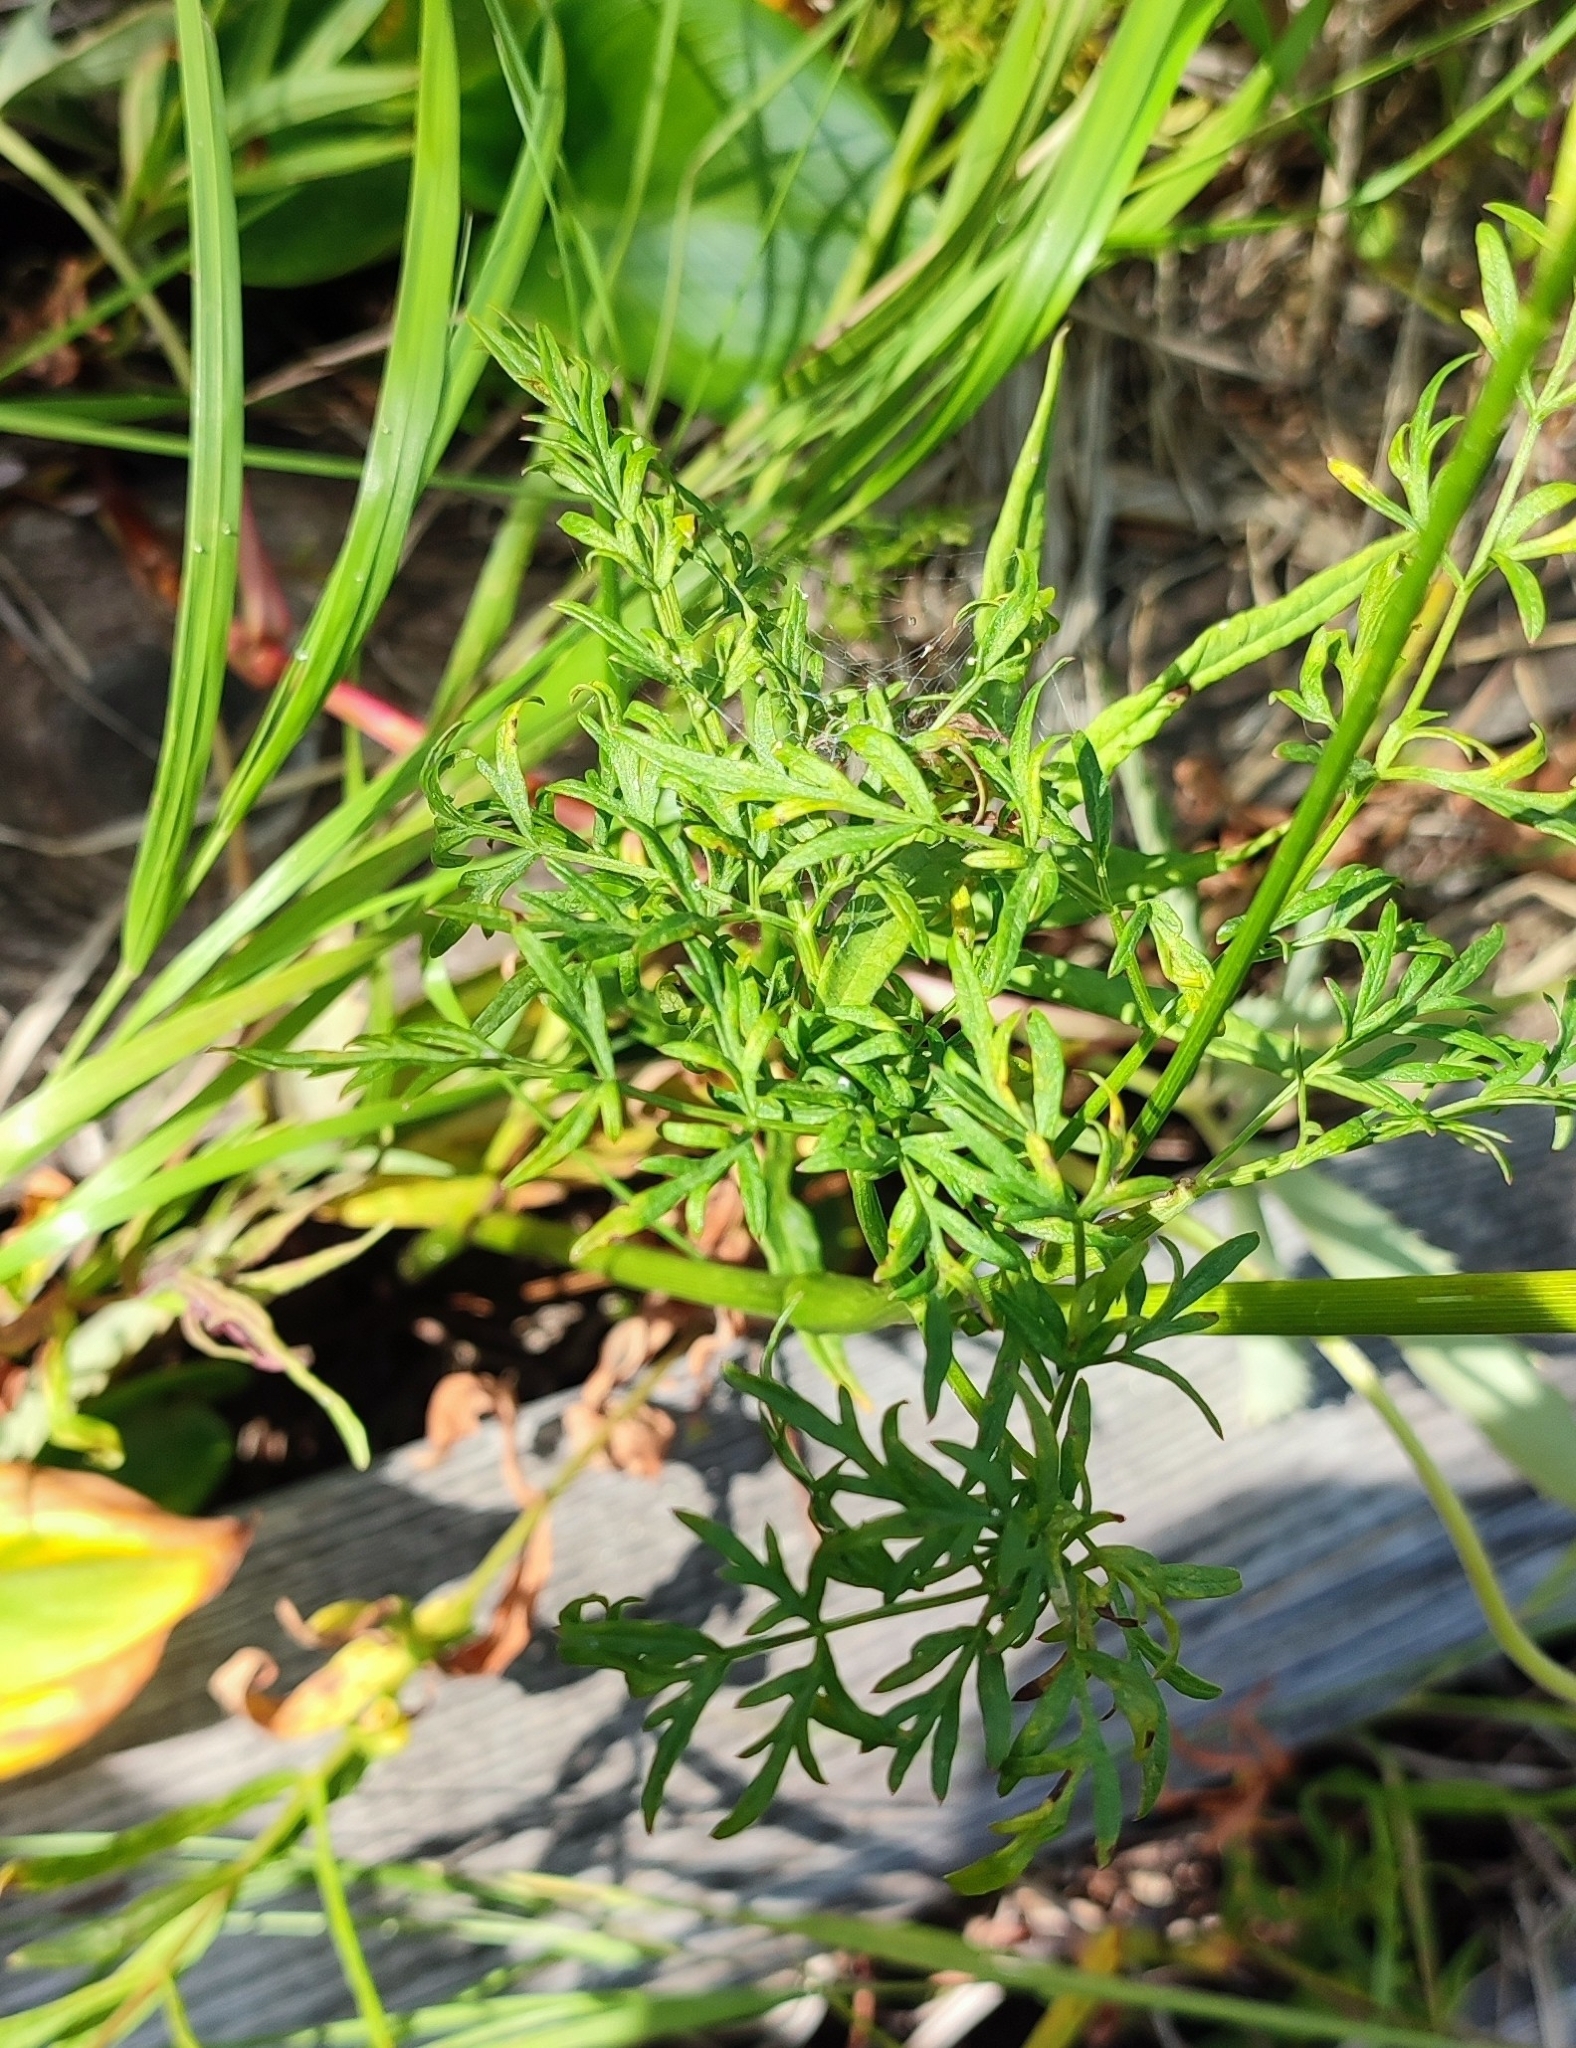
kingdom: Plantae
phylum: Tracheophyta
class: Magnoliopsida
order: Apiales
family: Apiaceae
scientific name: Apiaceae
